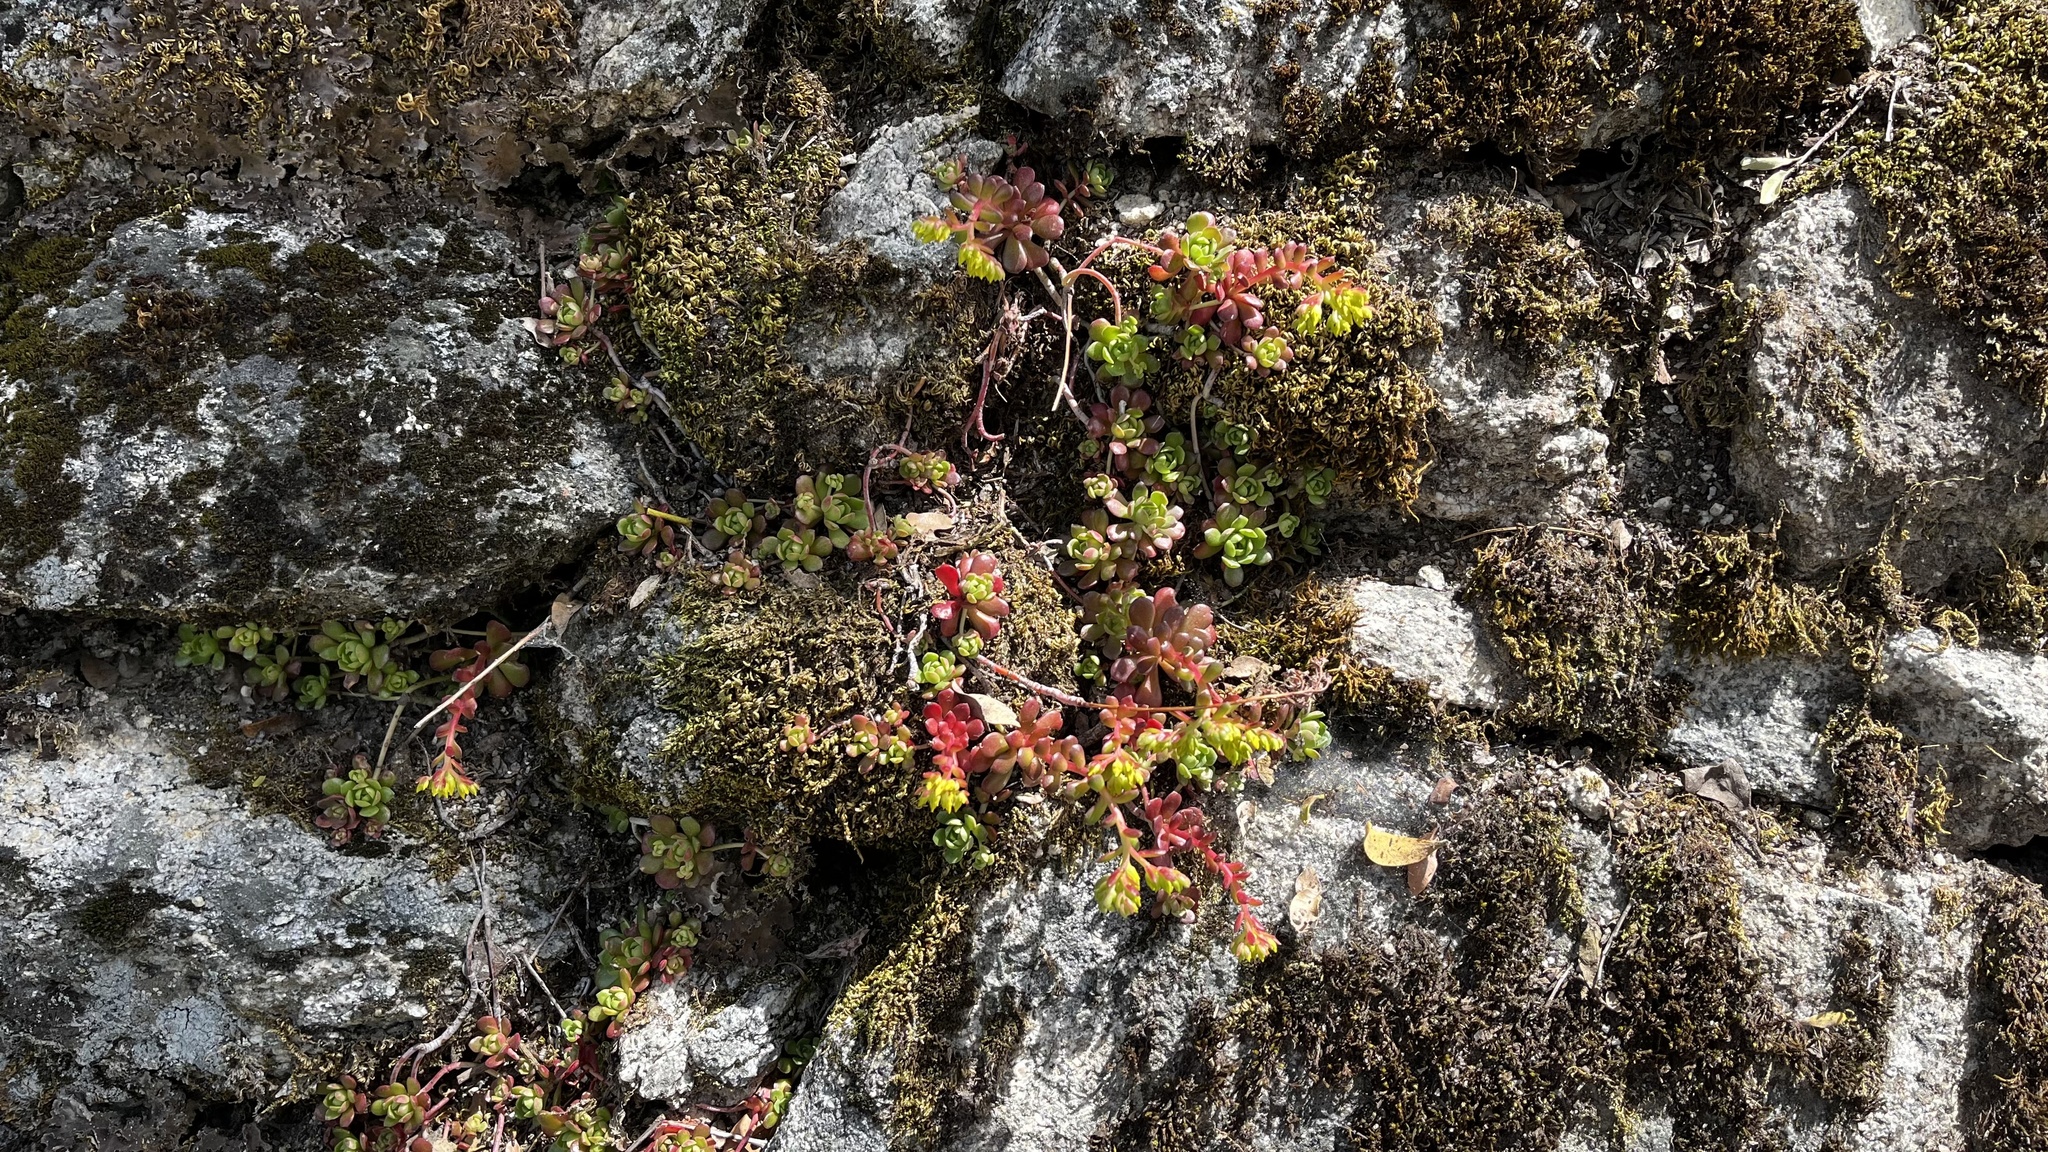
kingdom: Plantae
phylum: Tracheophyta
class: Magnoliopsida
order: Saxifragales
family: Crassulaceae
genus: Sedum
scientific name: Sedum spathulifolium
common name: Colorado stonecrop
